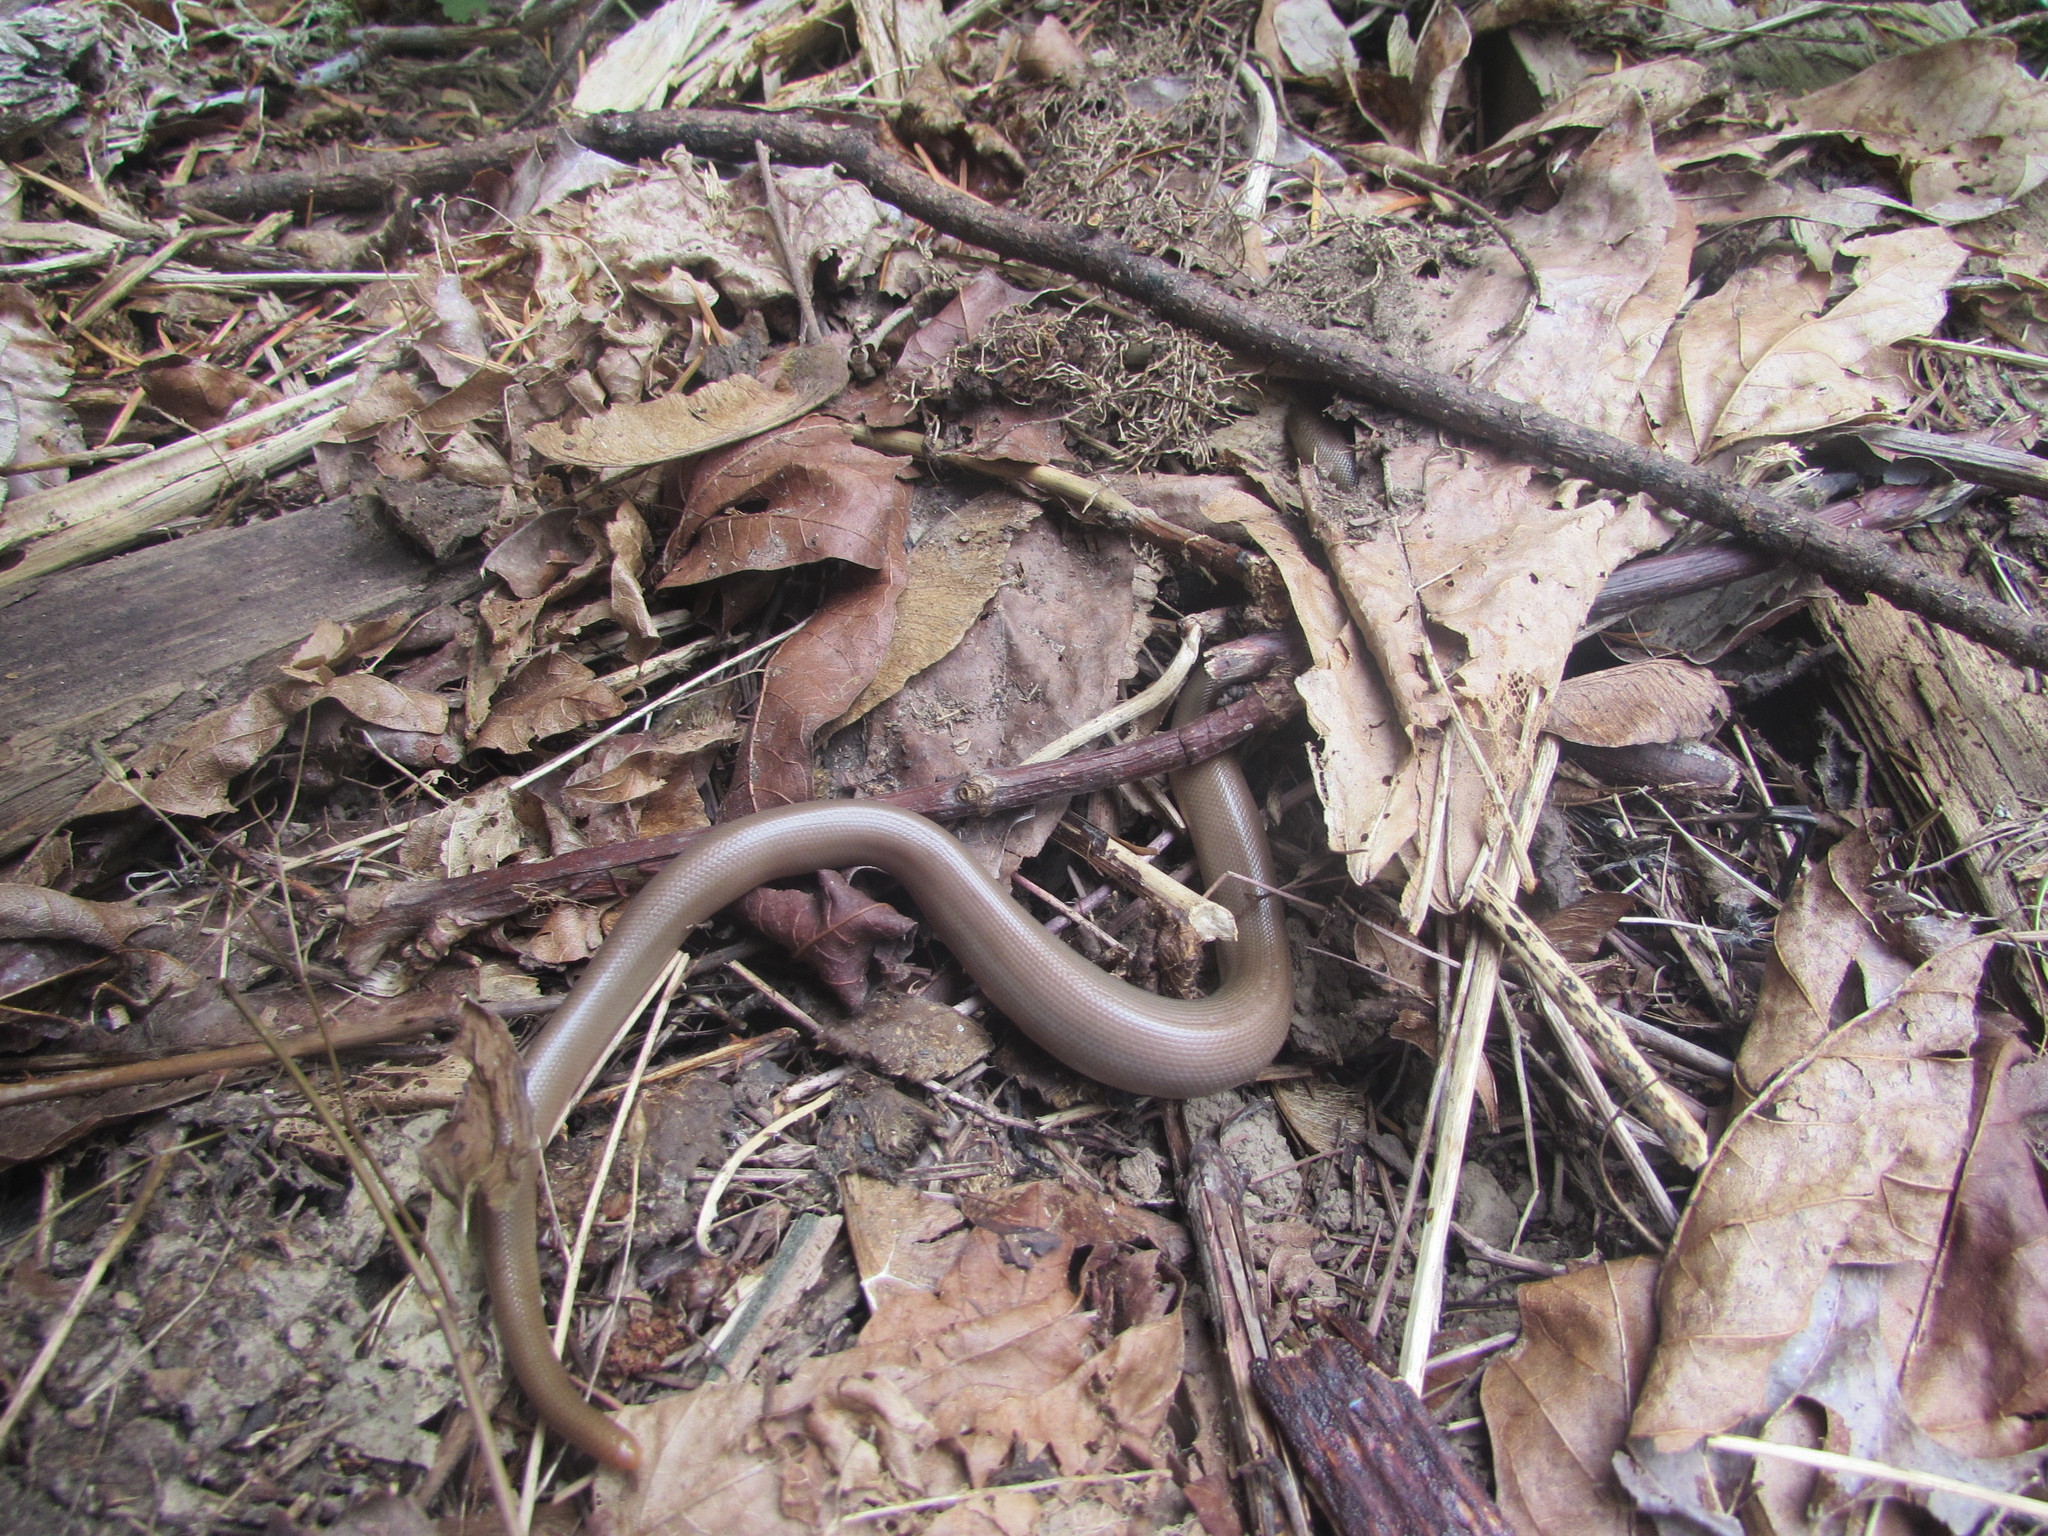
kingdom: Animalia
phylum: Chordata
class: Squamata
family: Boidae
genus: Charina
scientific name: Charina bottae
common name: Northern rubber boa
